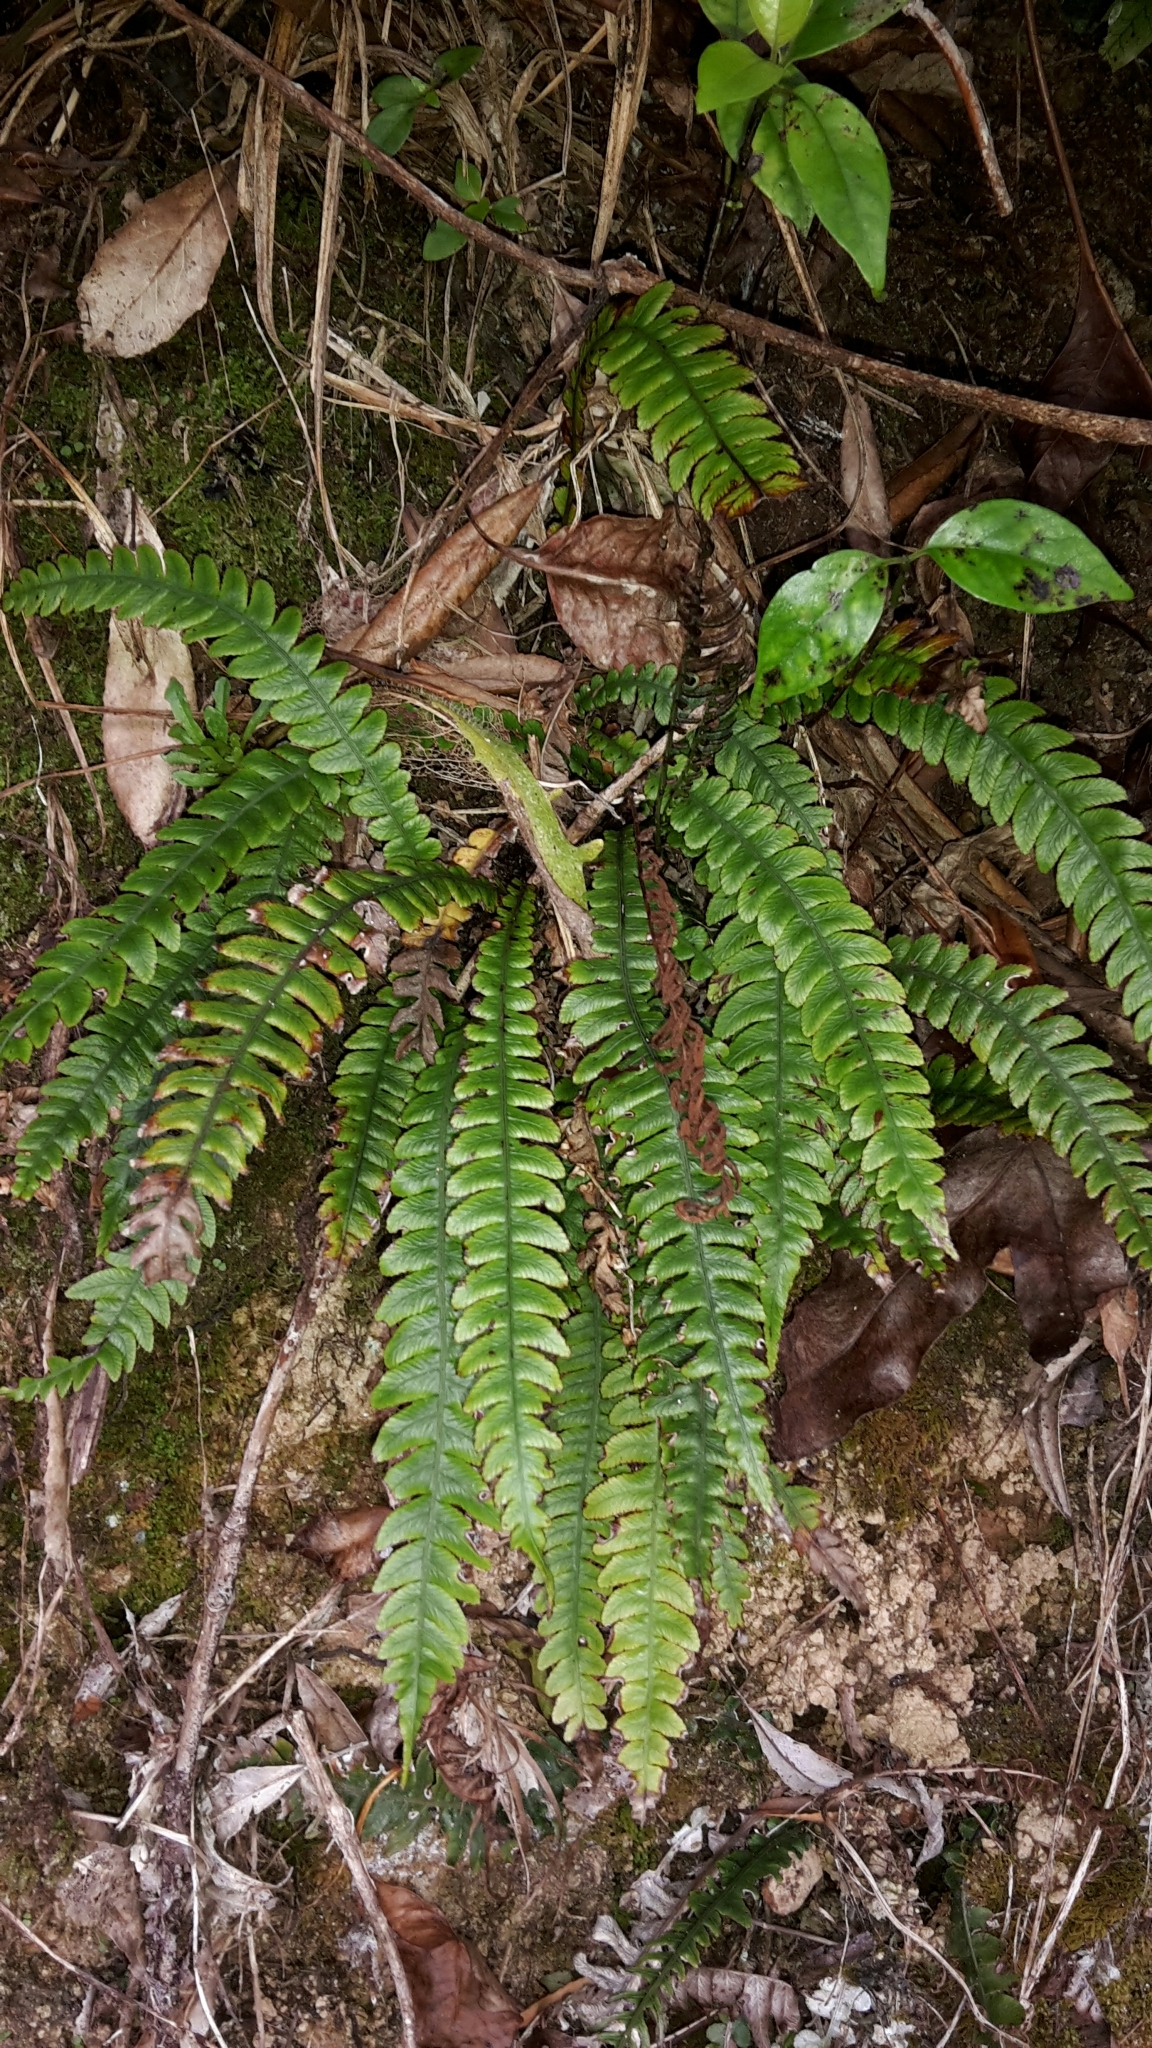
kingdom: Plantae
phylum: Tracheophyta
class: Polypodiopsida
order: Polypodiales
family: Blechnaceae
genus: Austroblechnum
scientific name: Austroblechnum lanceolatum
